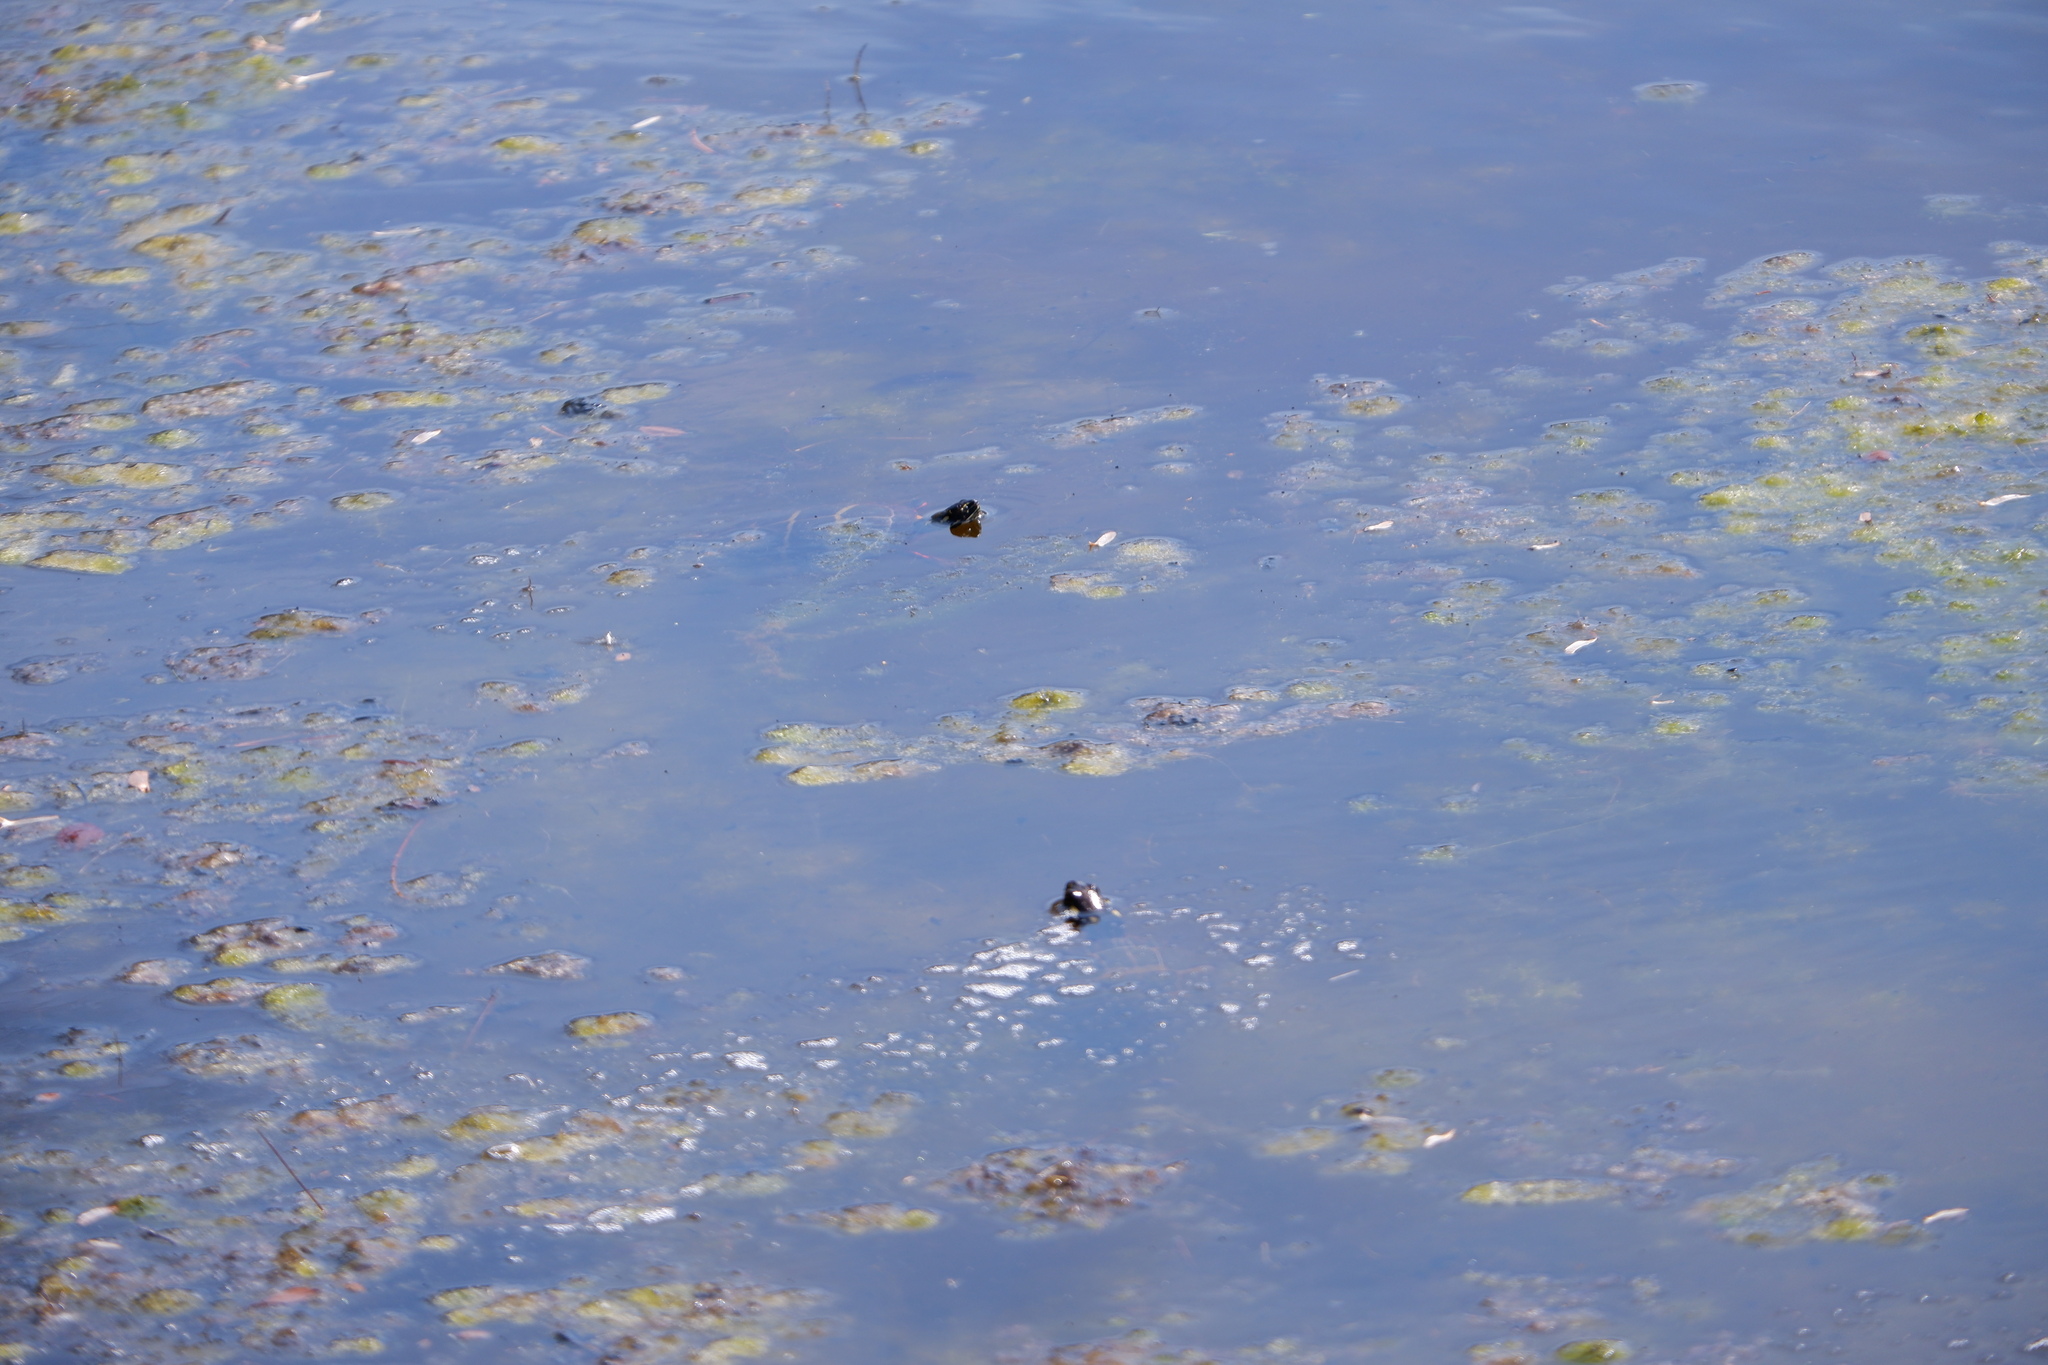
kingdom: Animalia
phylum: Chordata
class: Testudines
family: Emydidae
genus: Chrysemys
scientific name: Chrysemys picta
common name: Painted turtle
